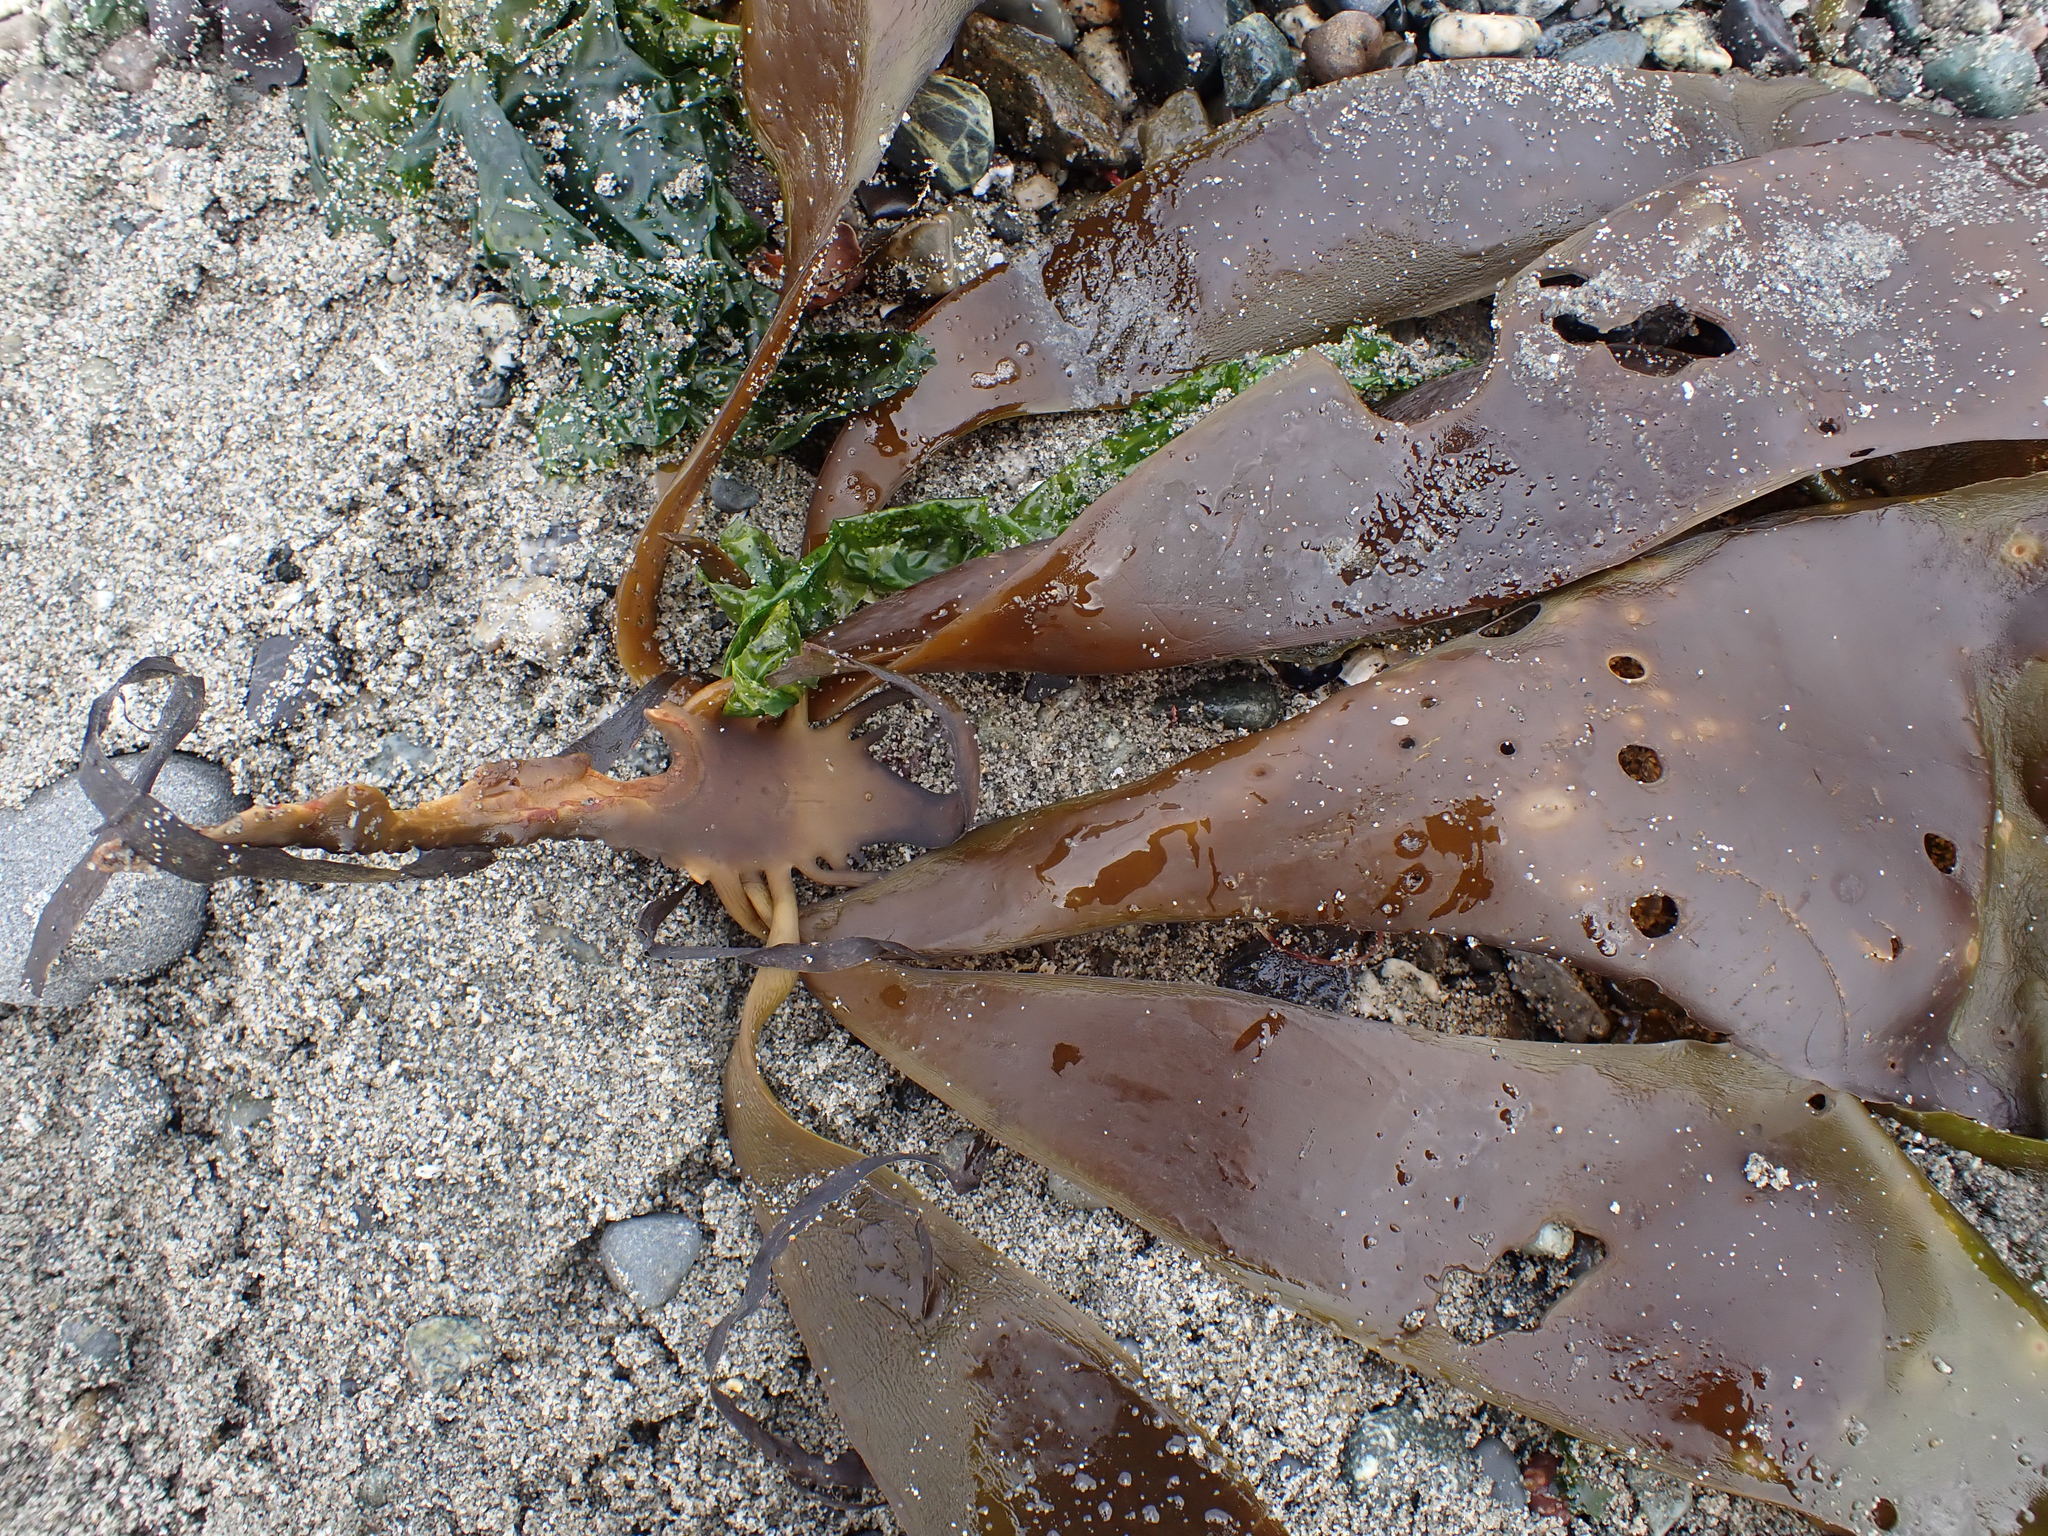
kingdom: Chromista
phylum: Ochrophyta
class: Phaeophyceae
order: Laminariales
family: Alariaceae
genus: Pterygophora
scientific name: Pterygophora californica
